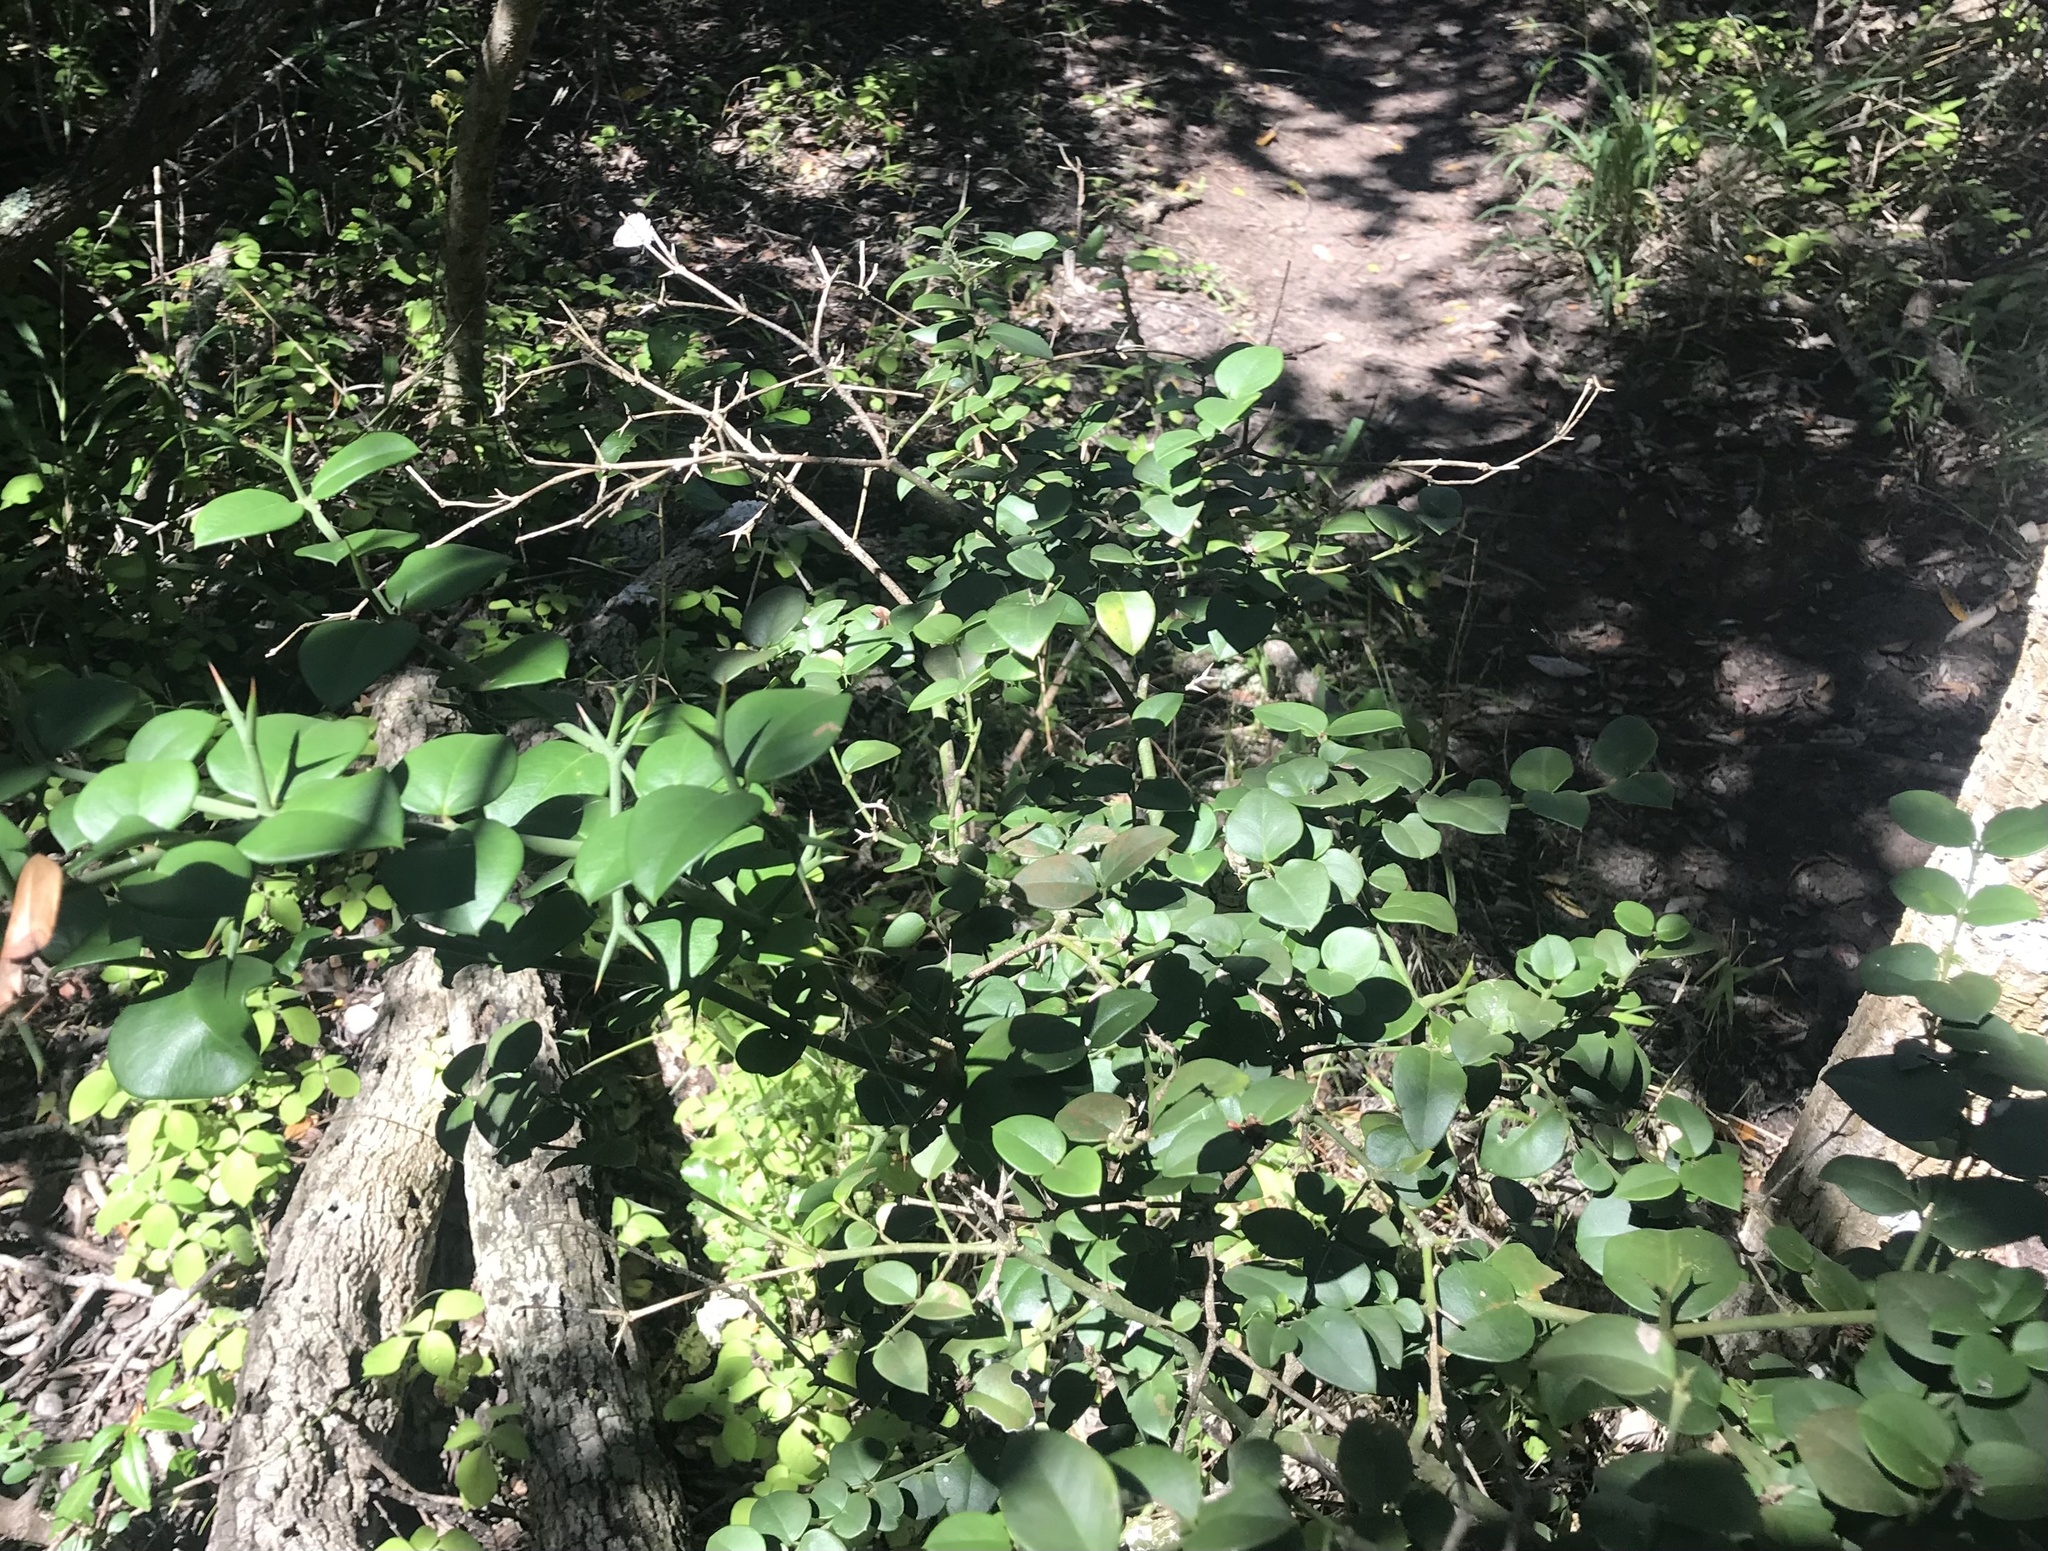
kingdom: Plantae
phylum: Tracheophyta
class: Magnoliopsida
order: Gentianales
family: Apocynaceae
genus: Carissa
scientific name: Carissa bispinosa
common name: Forest num-num
